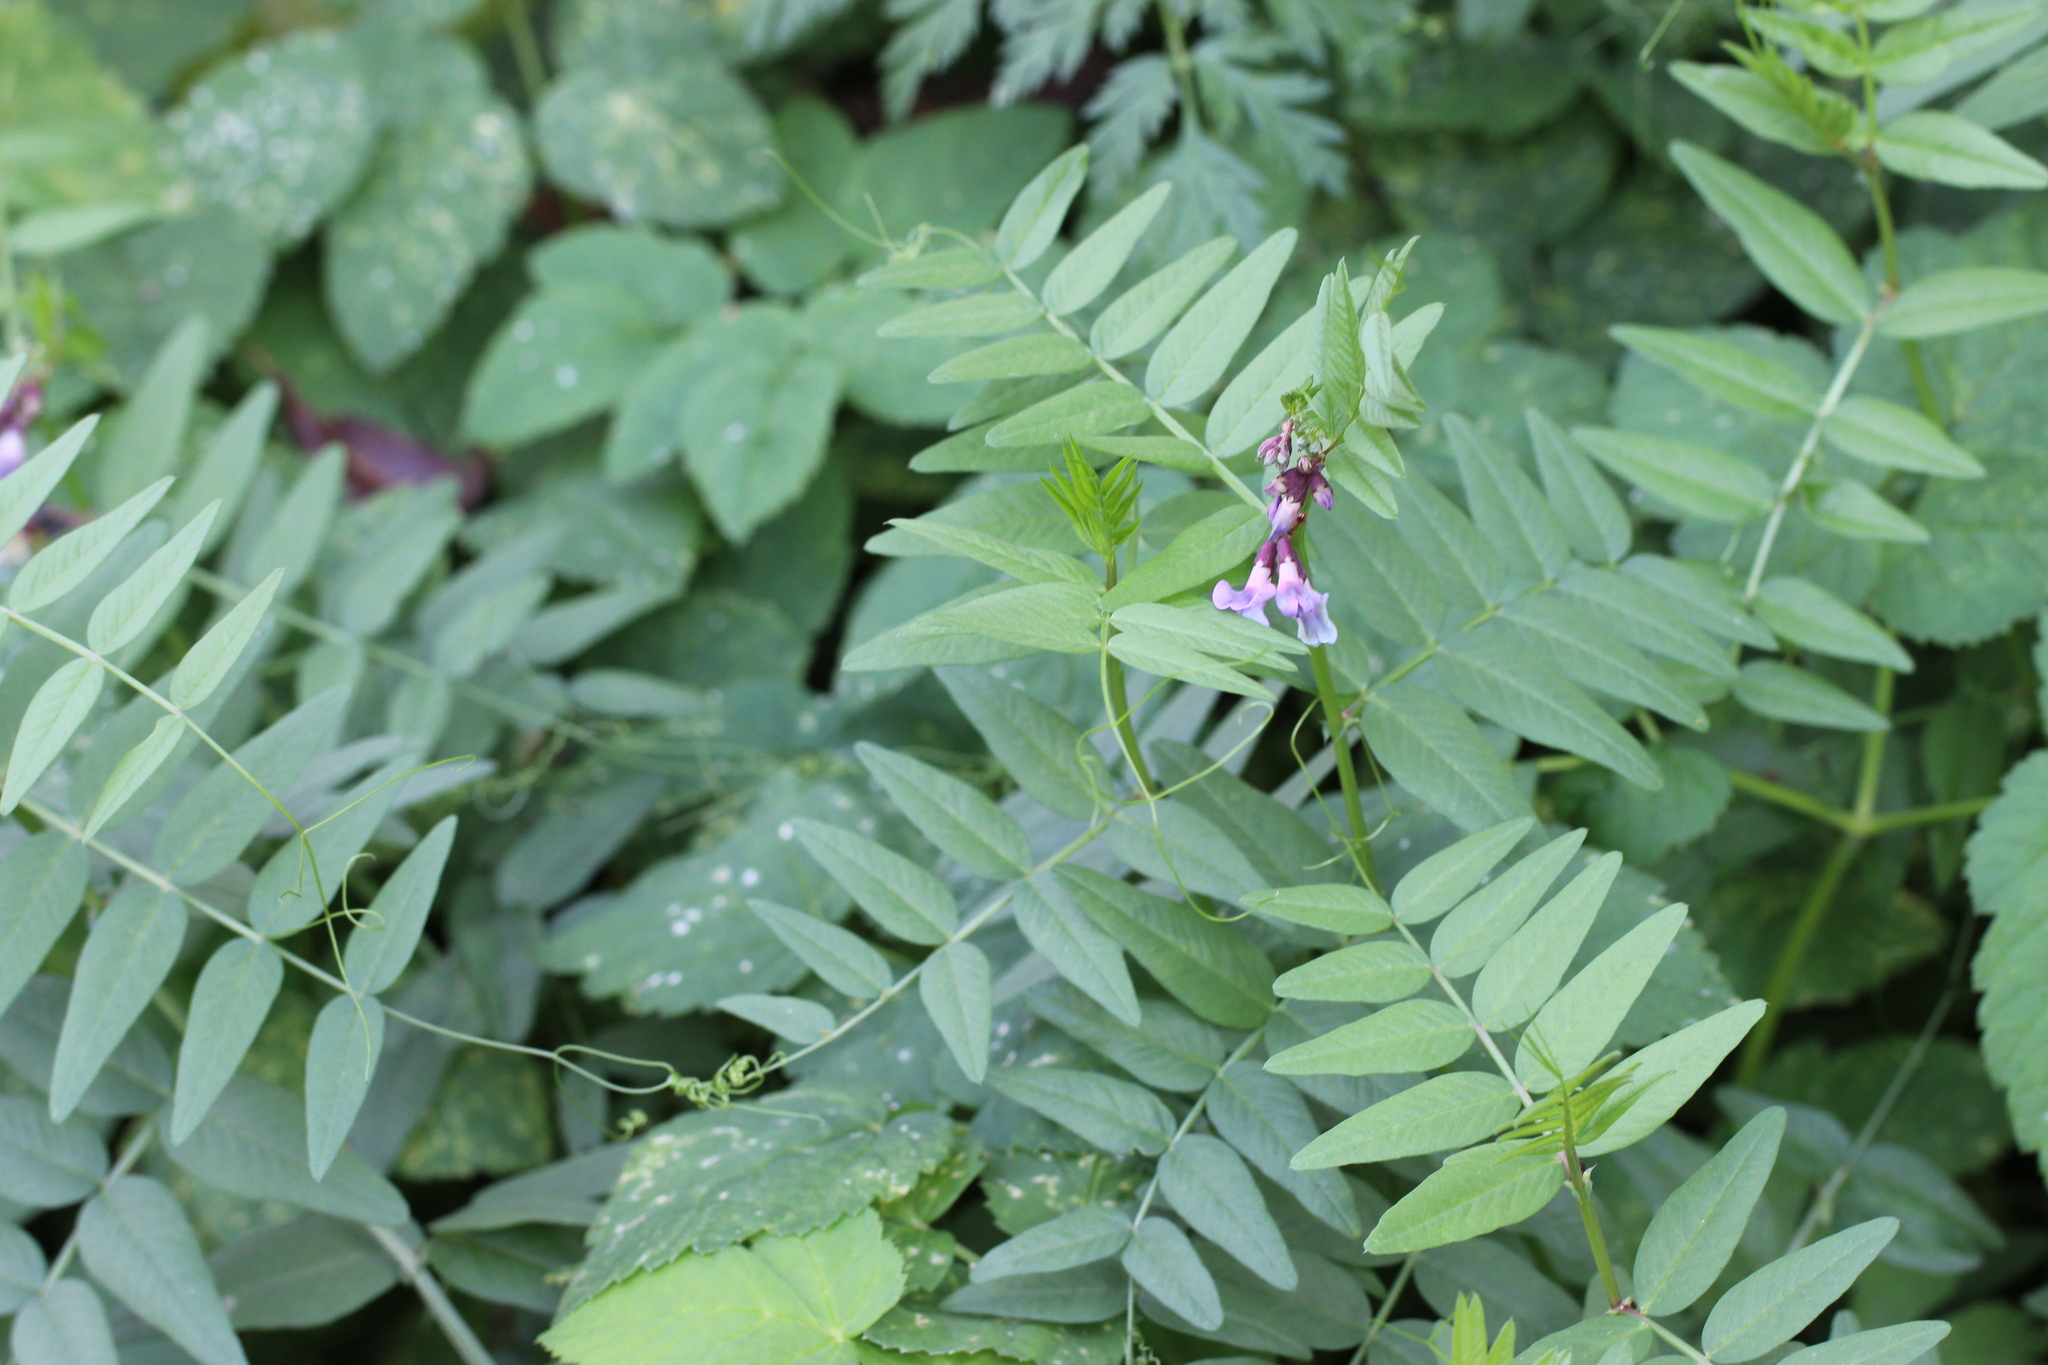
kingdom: Plantae
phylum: Tracheophyta
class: Magnoliopsida
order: Fabales
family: Fabaceae
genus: Vicia
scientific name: Vicia sepium
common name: Bush vetch
